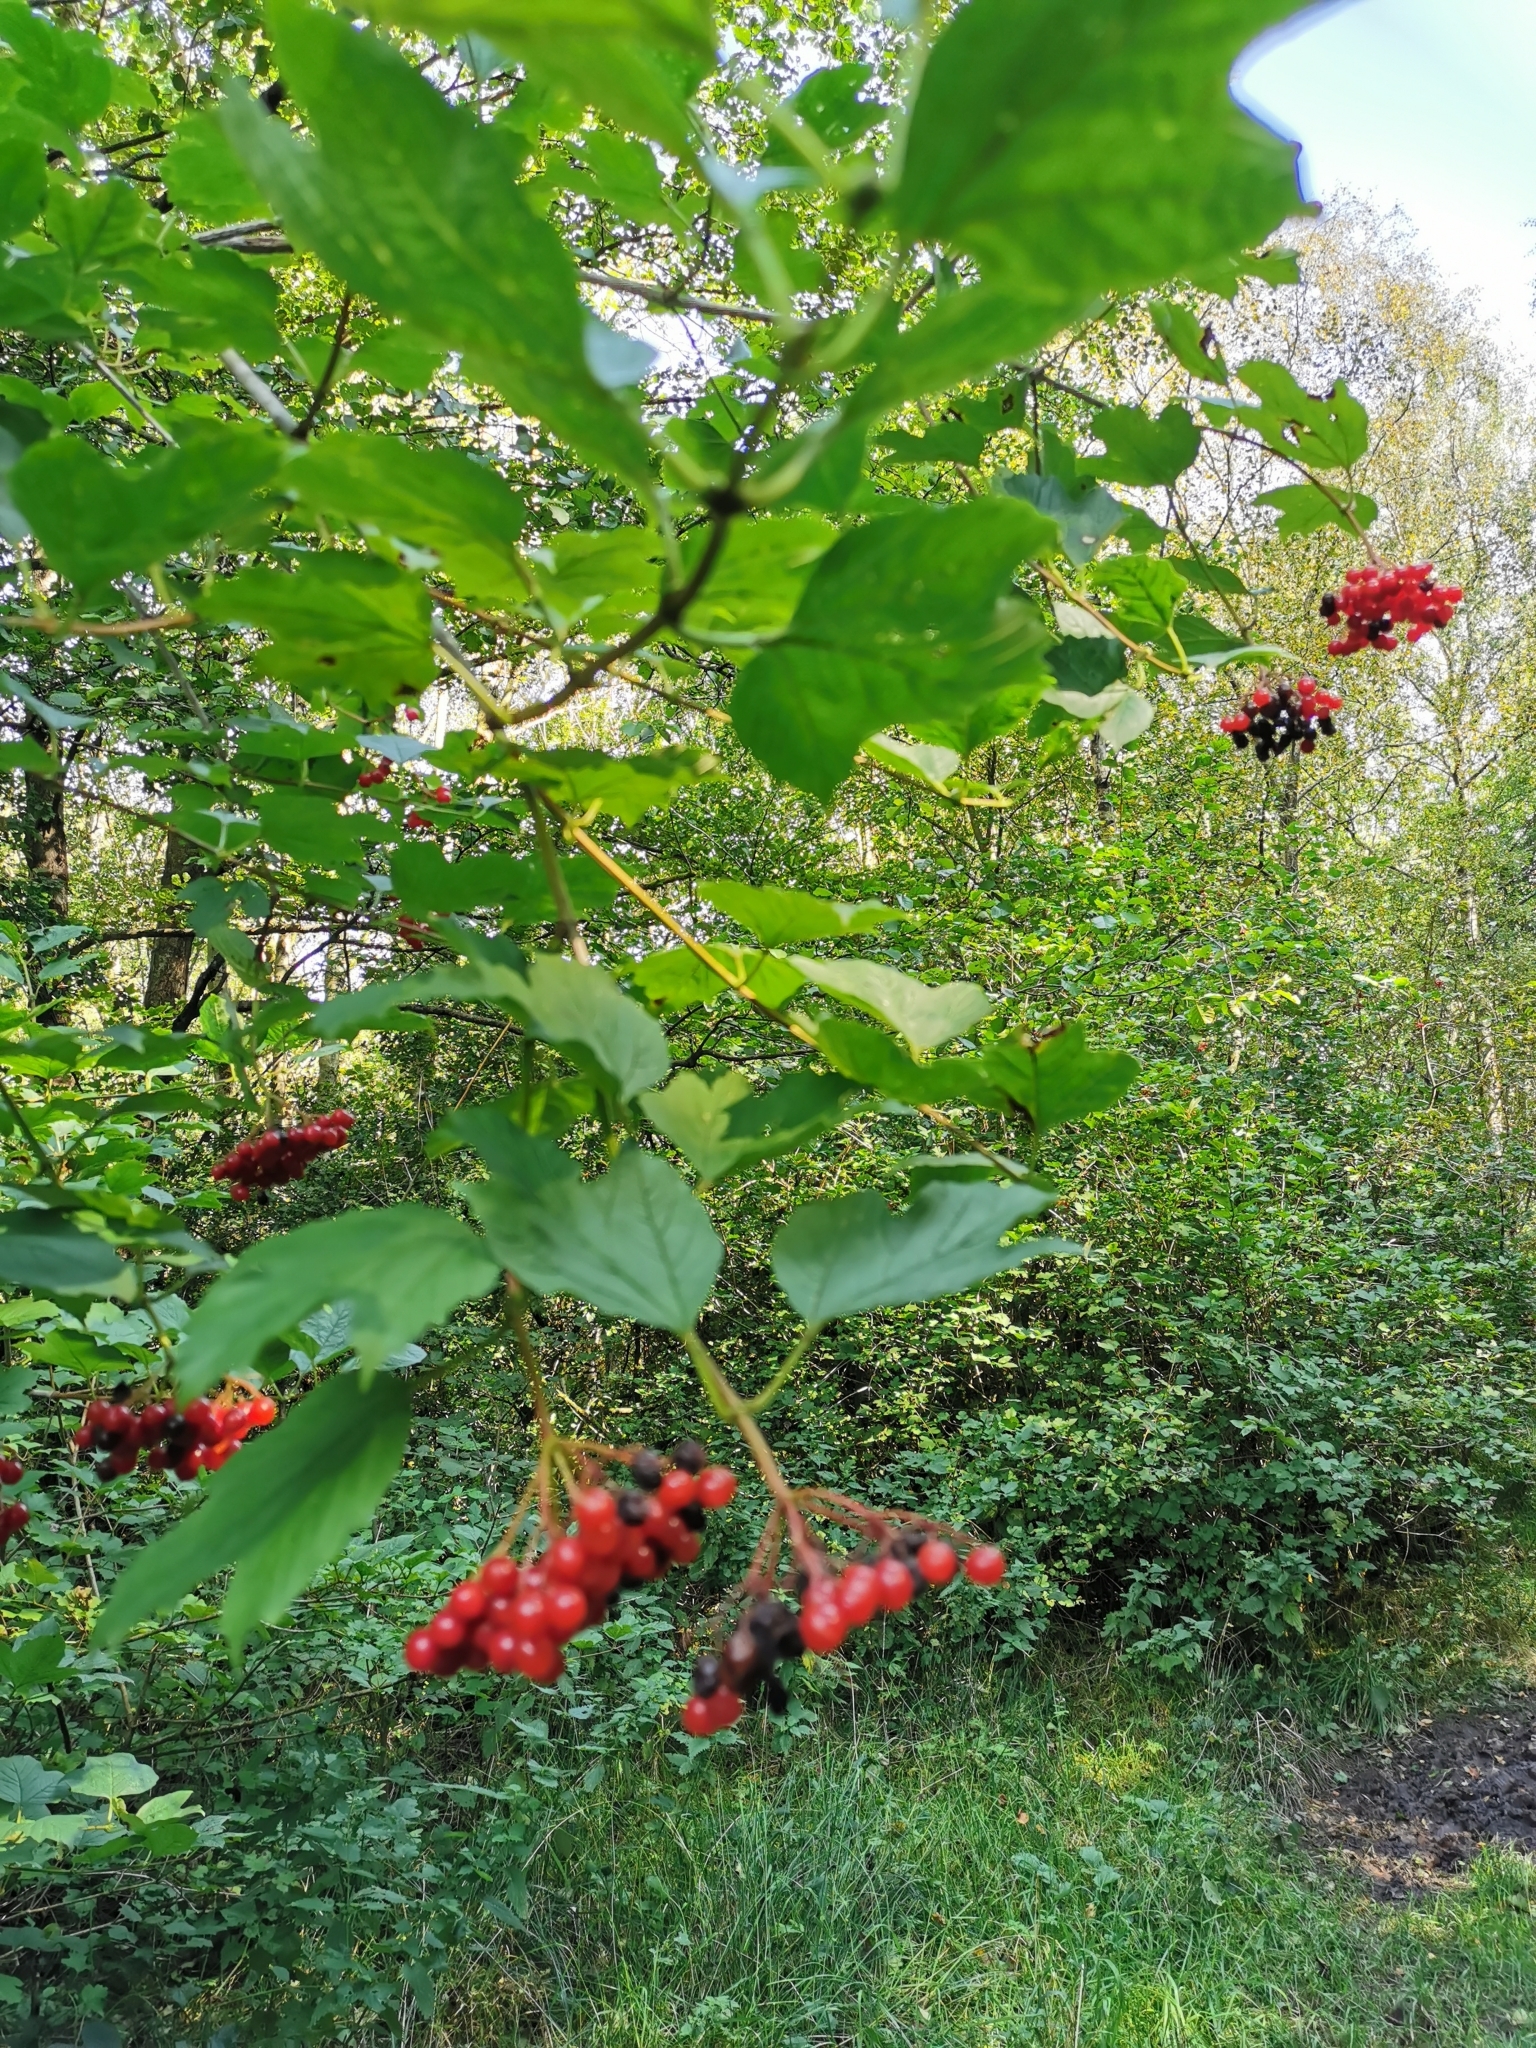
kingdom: Plantae
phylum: Tracheophyta
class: Magnoliopsida
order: Dipsacales
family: Viburnaceae
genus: Viburnum
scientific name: Viburnum opulus
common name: Guelder-rose
